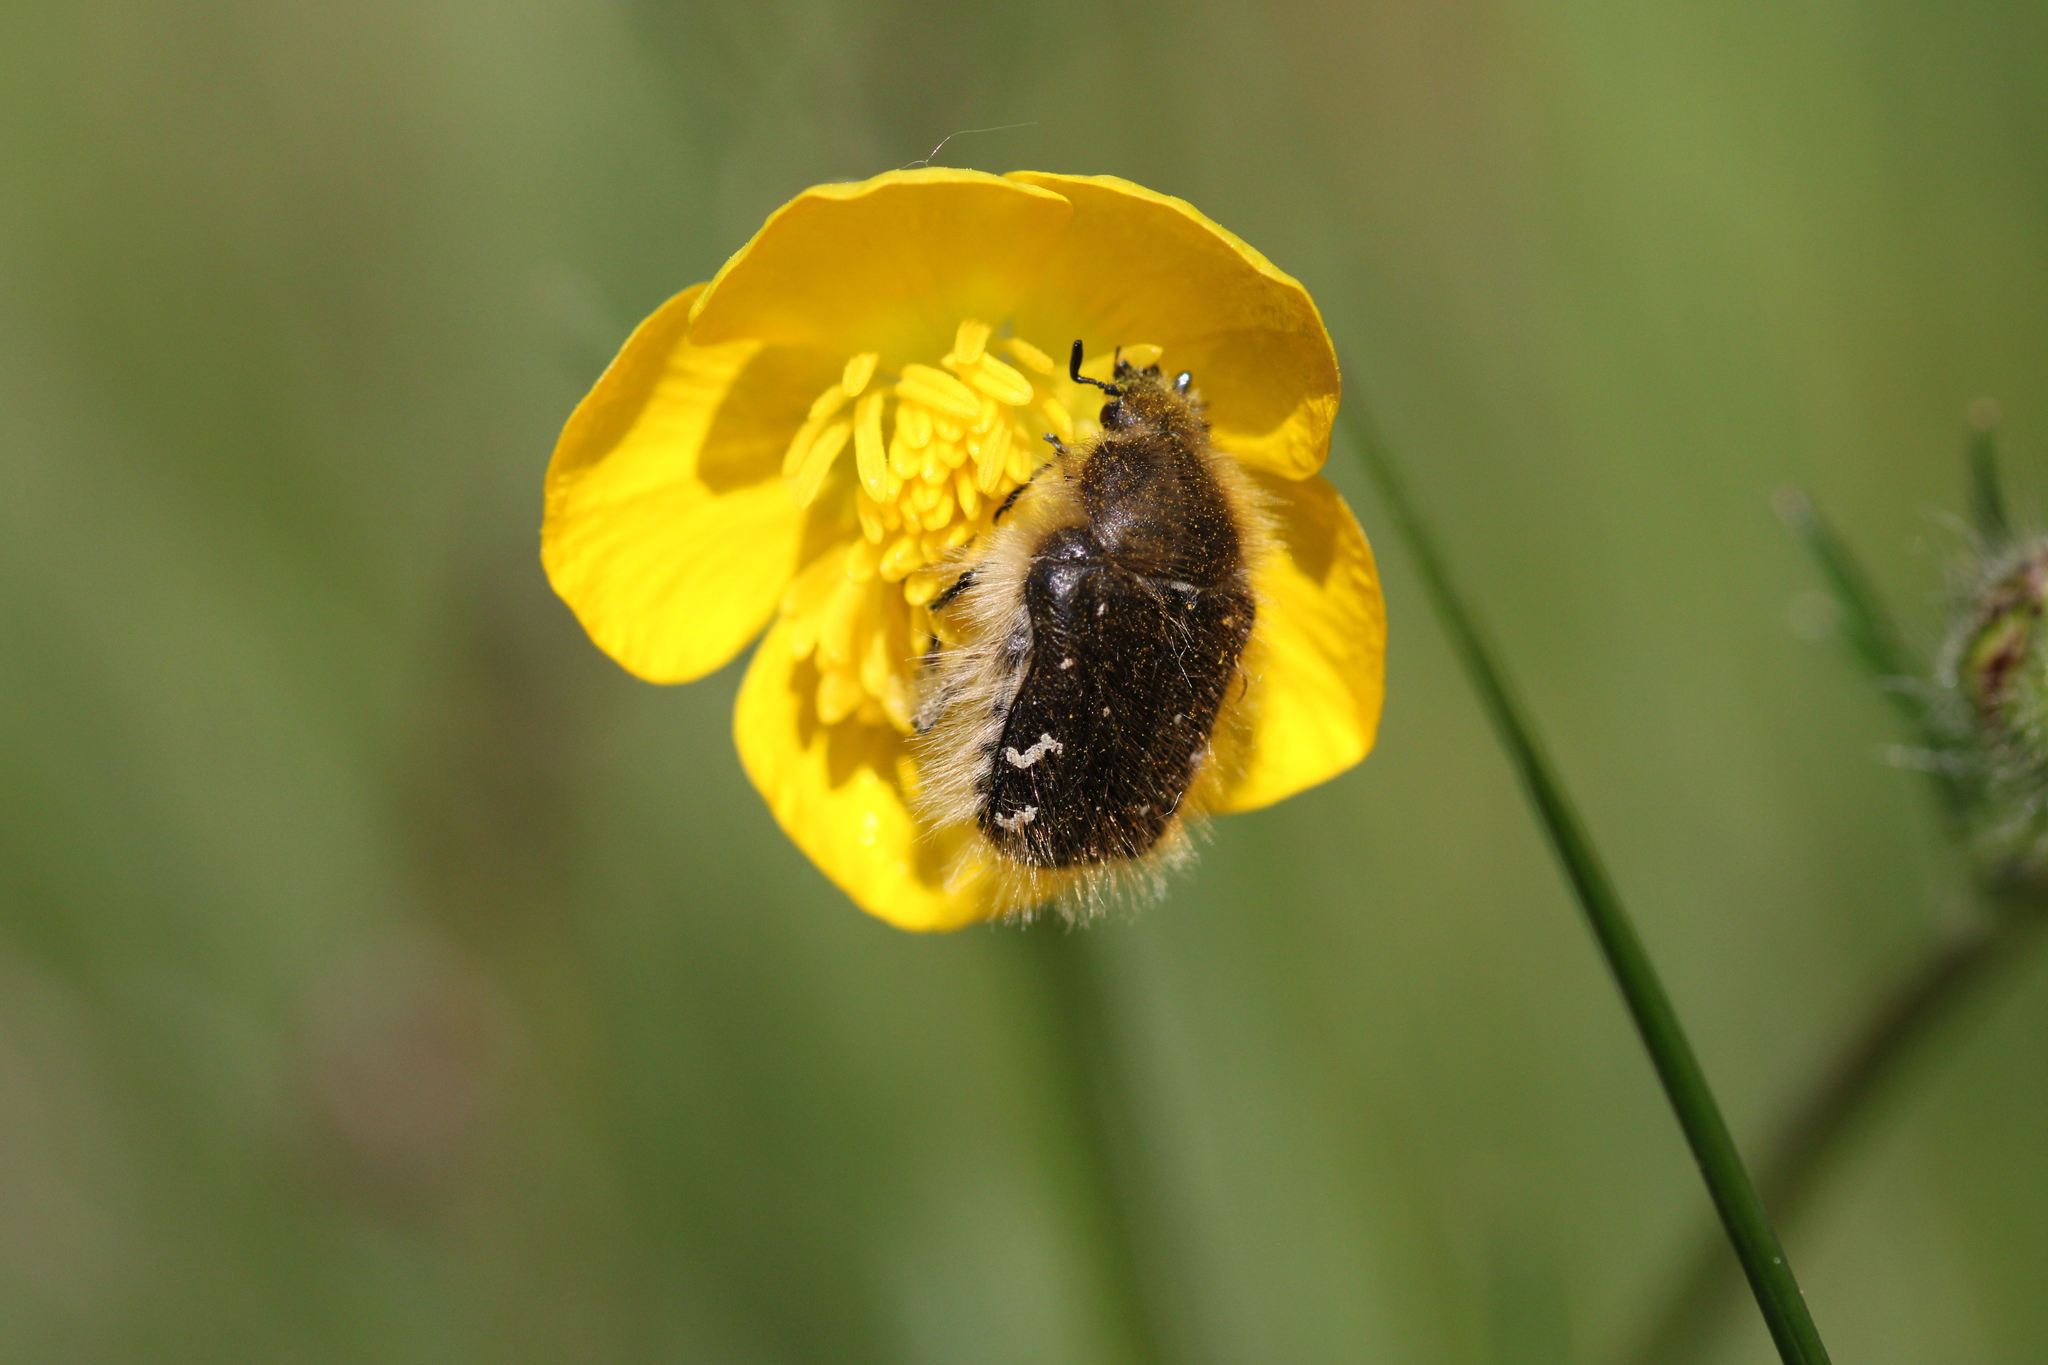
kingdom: Animalia
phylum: Arthropoda
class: Insecta
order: Coleoptera
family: Scarabaeidae
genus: Tropinota
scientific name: Tropinota hirta
